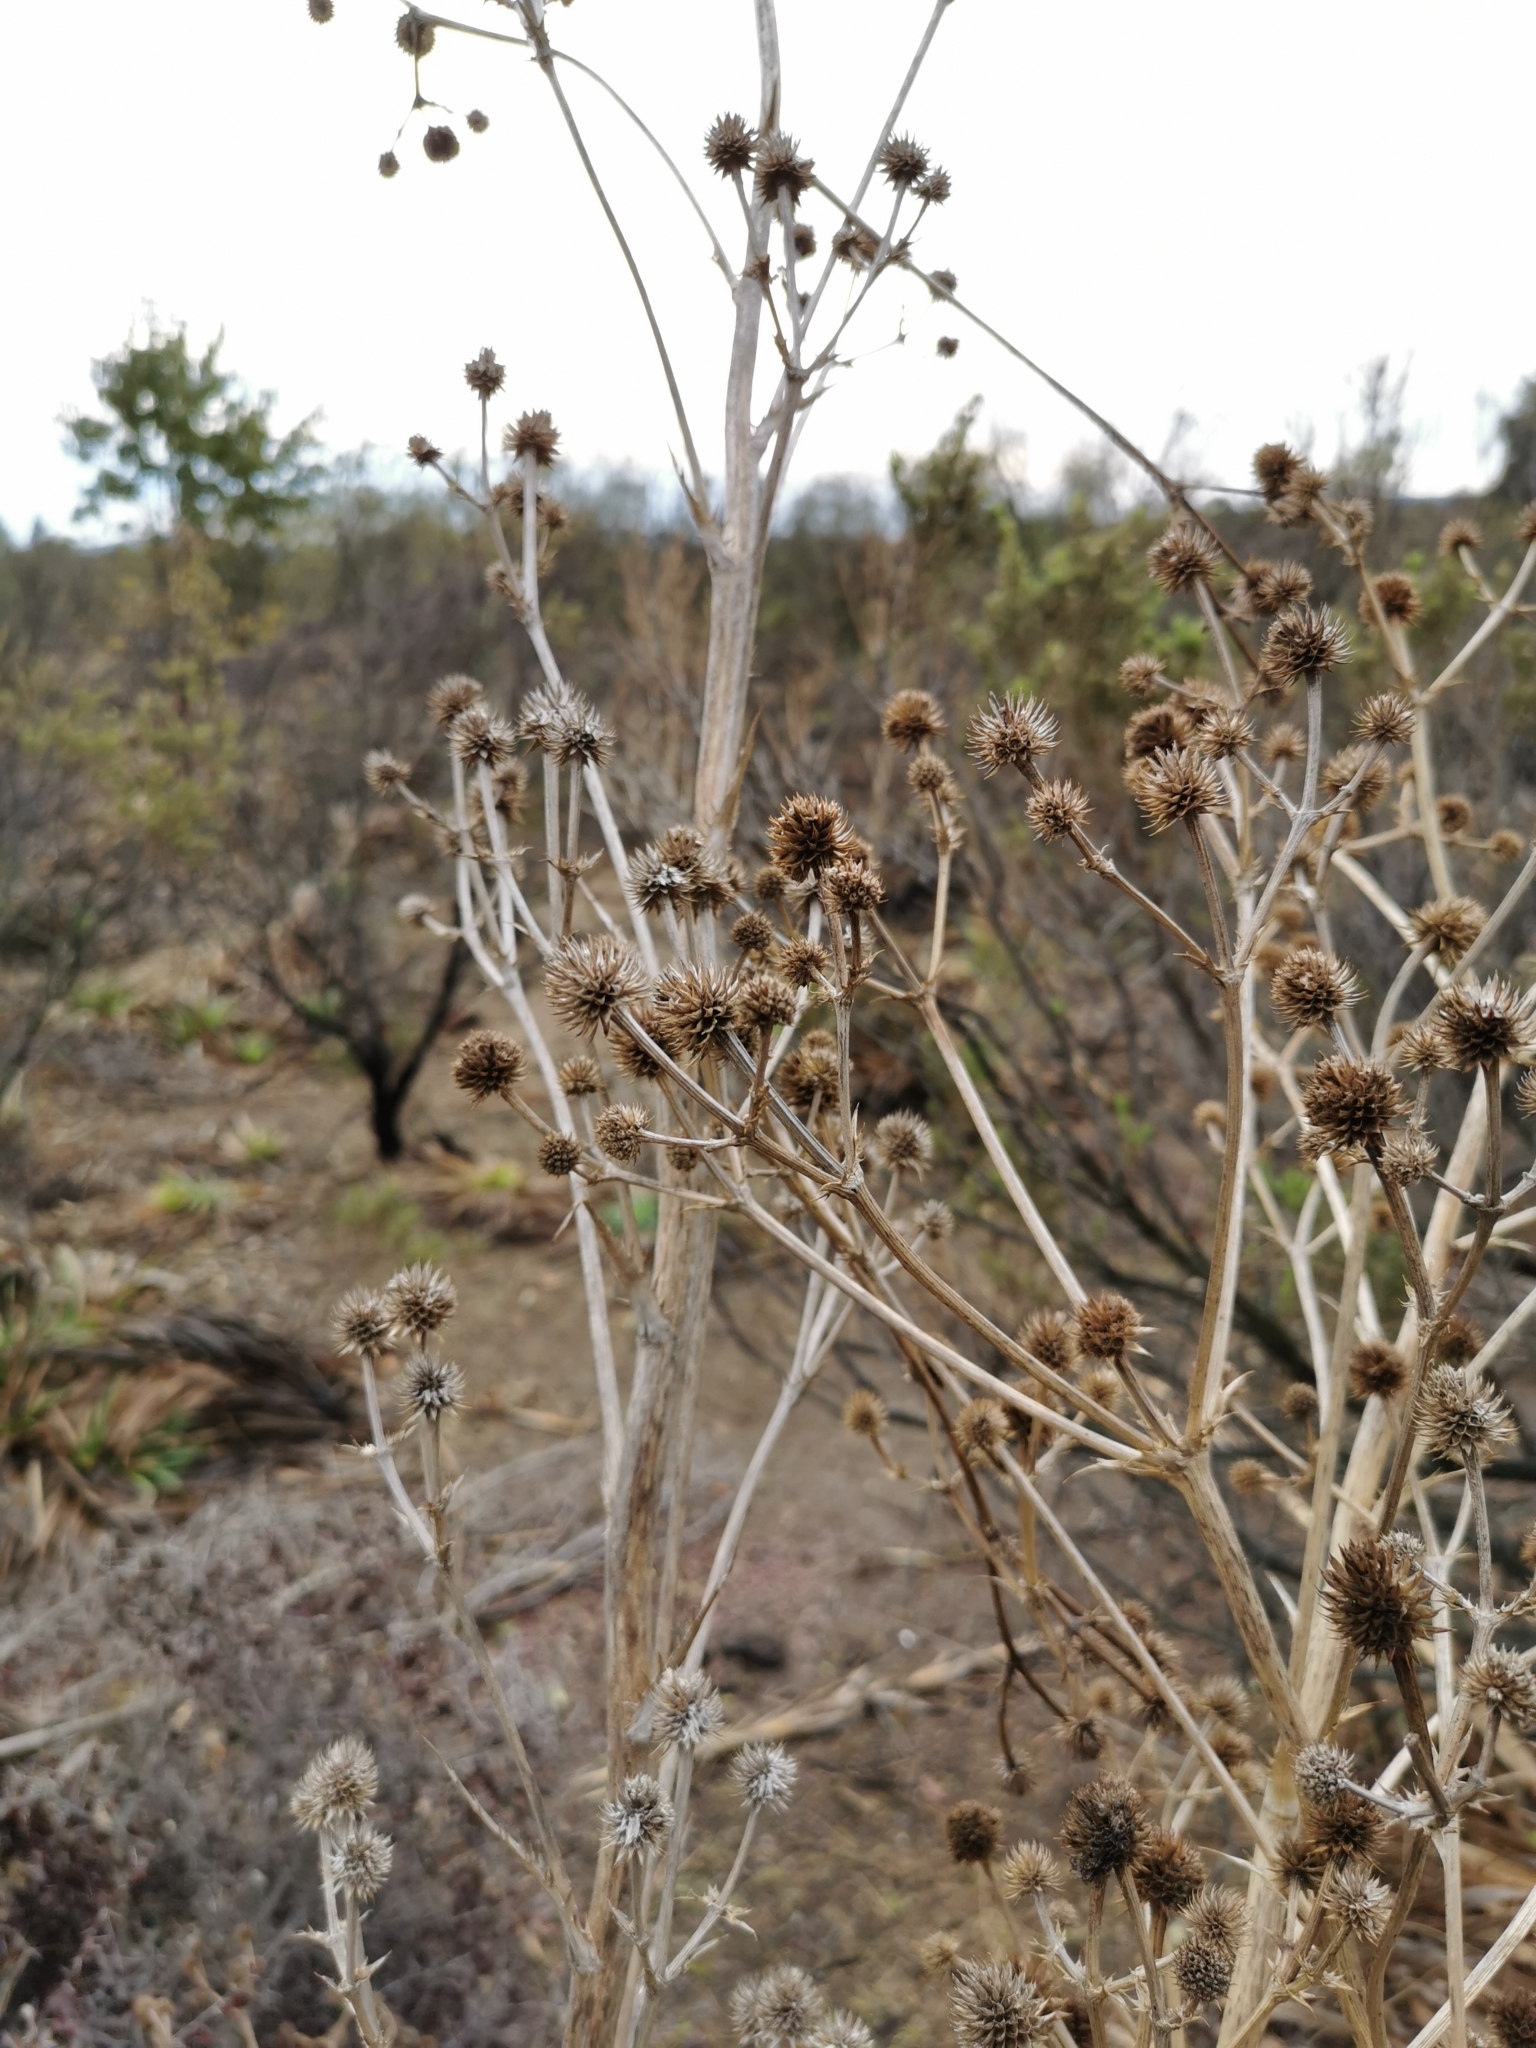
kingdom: Plantae
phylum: Tracheophyta
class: Magnoliopsida
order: Apiales
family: Apiaceae
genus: Eryngium
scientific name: Eryngium humboldtii
